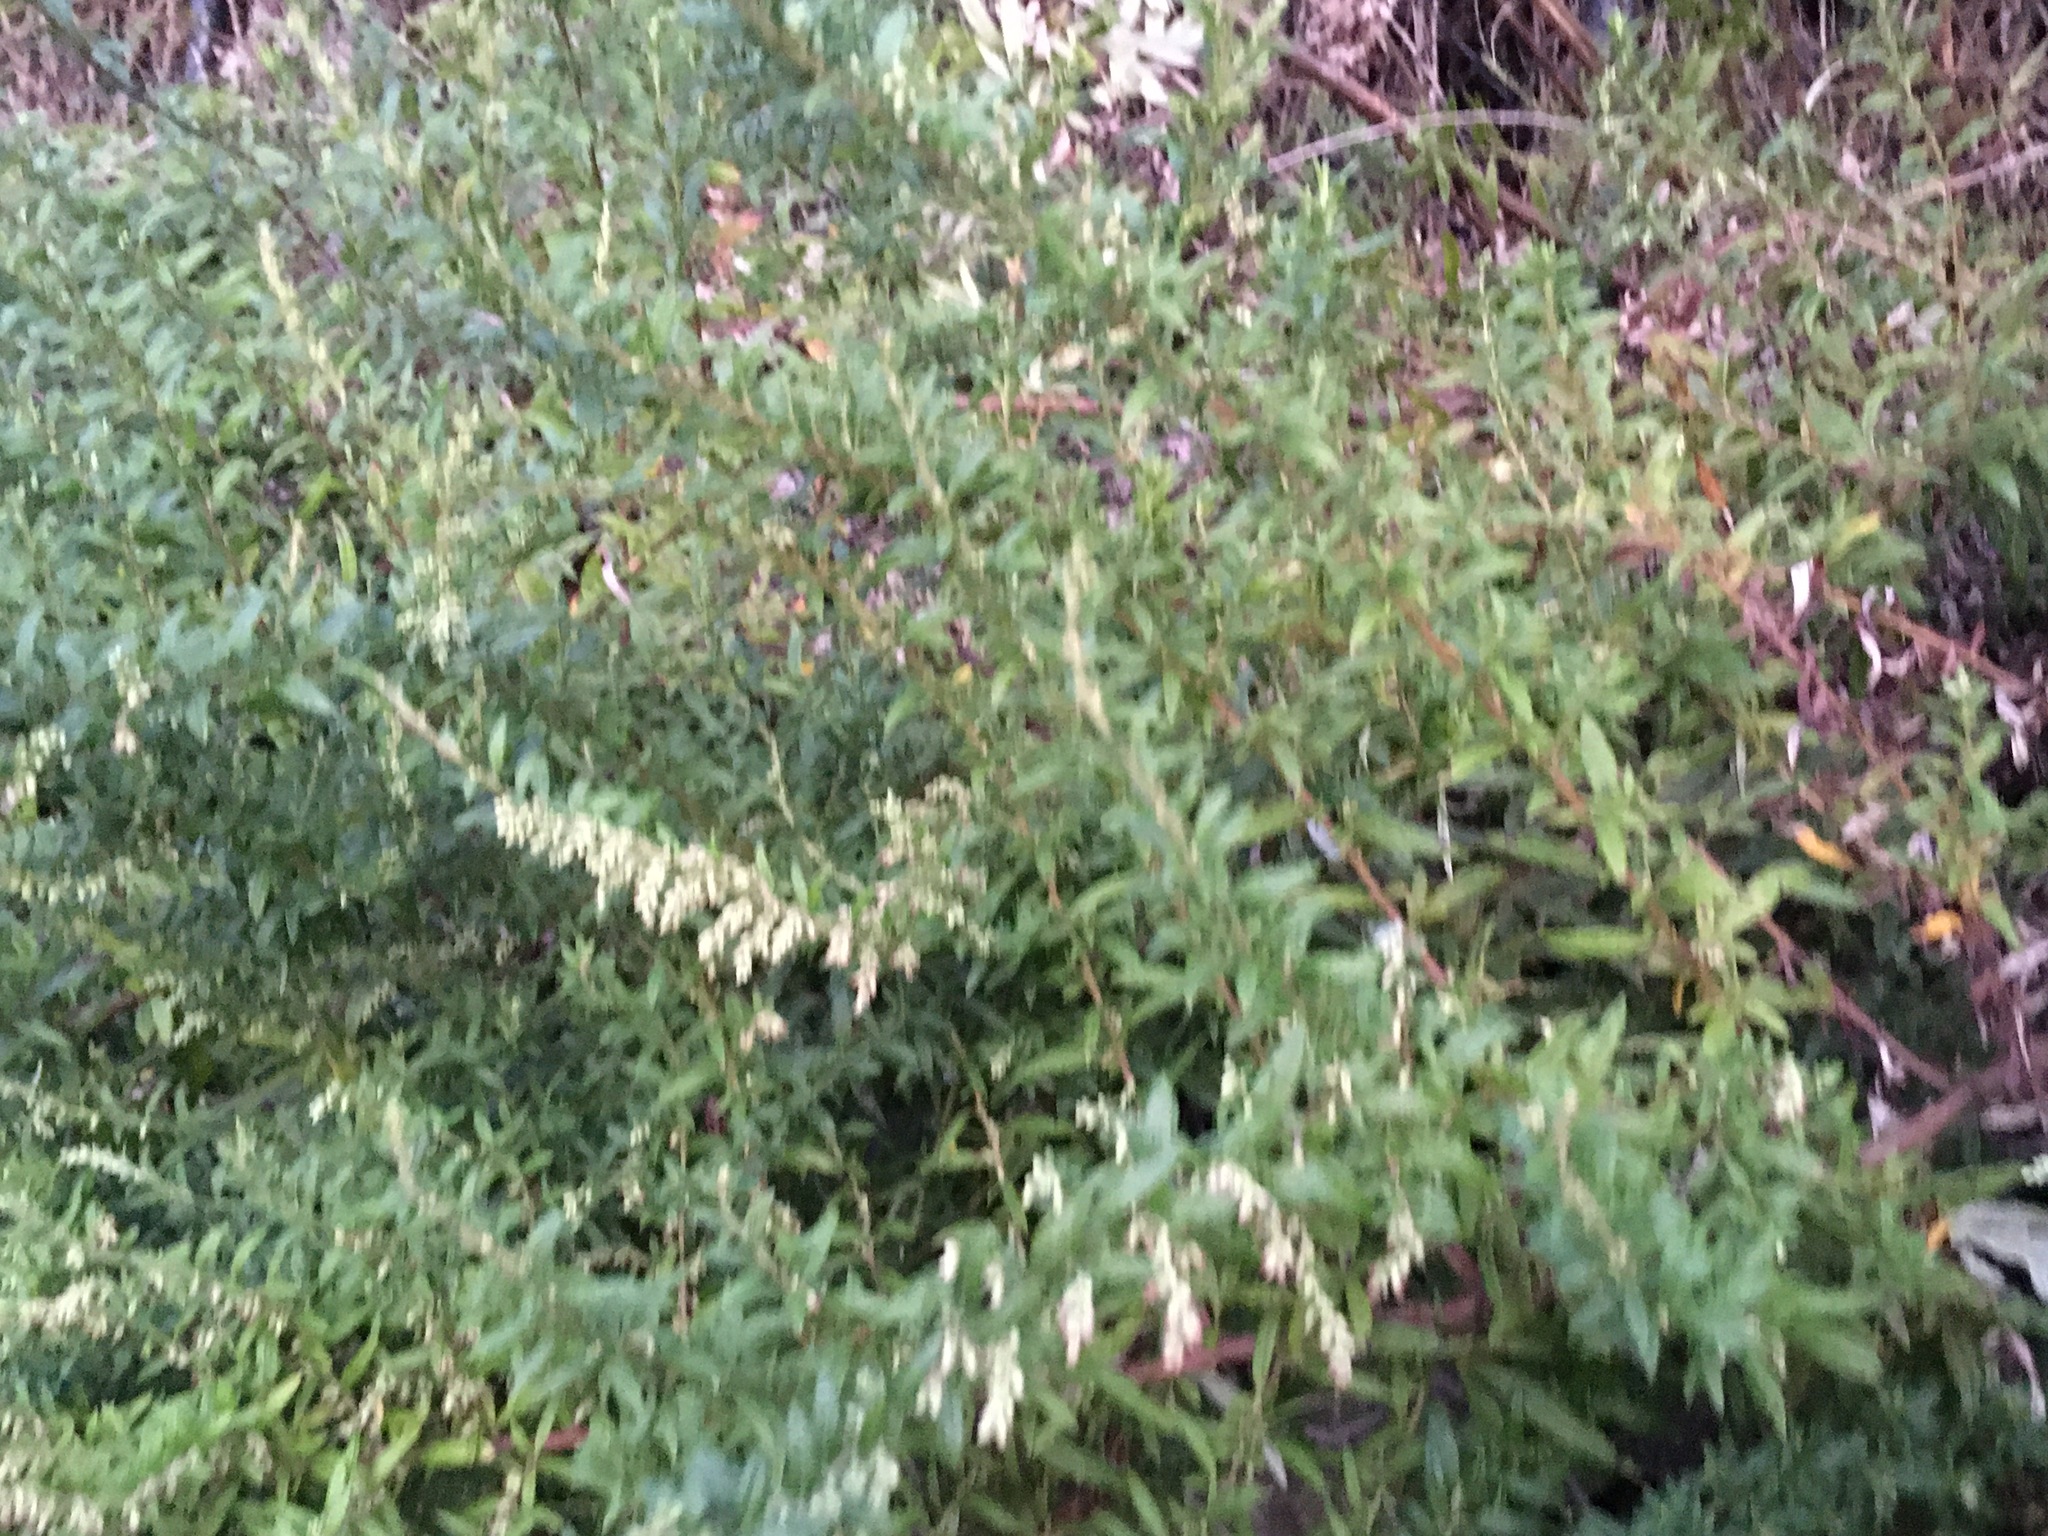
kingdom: Plantae
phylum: Tracheophyta
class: Magnoliopsida
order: Asterales
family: Asteraceae
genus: Artemisia
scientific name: Artemisia vulgaris
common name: Mugwort
